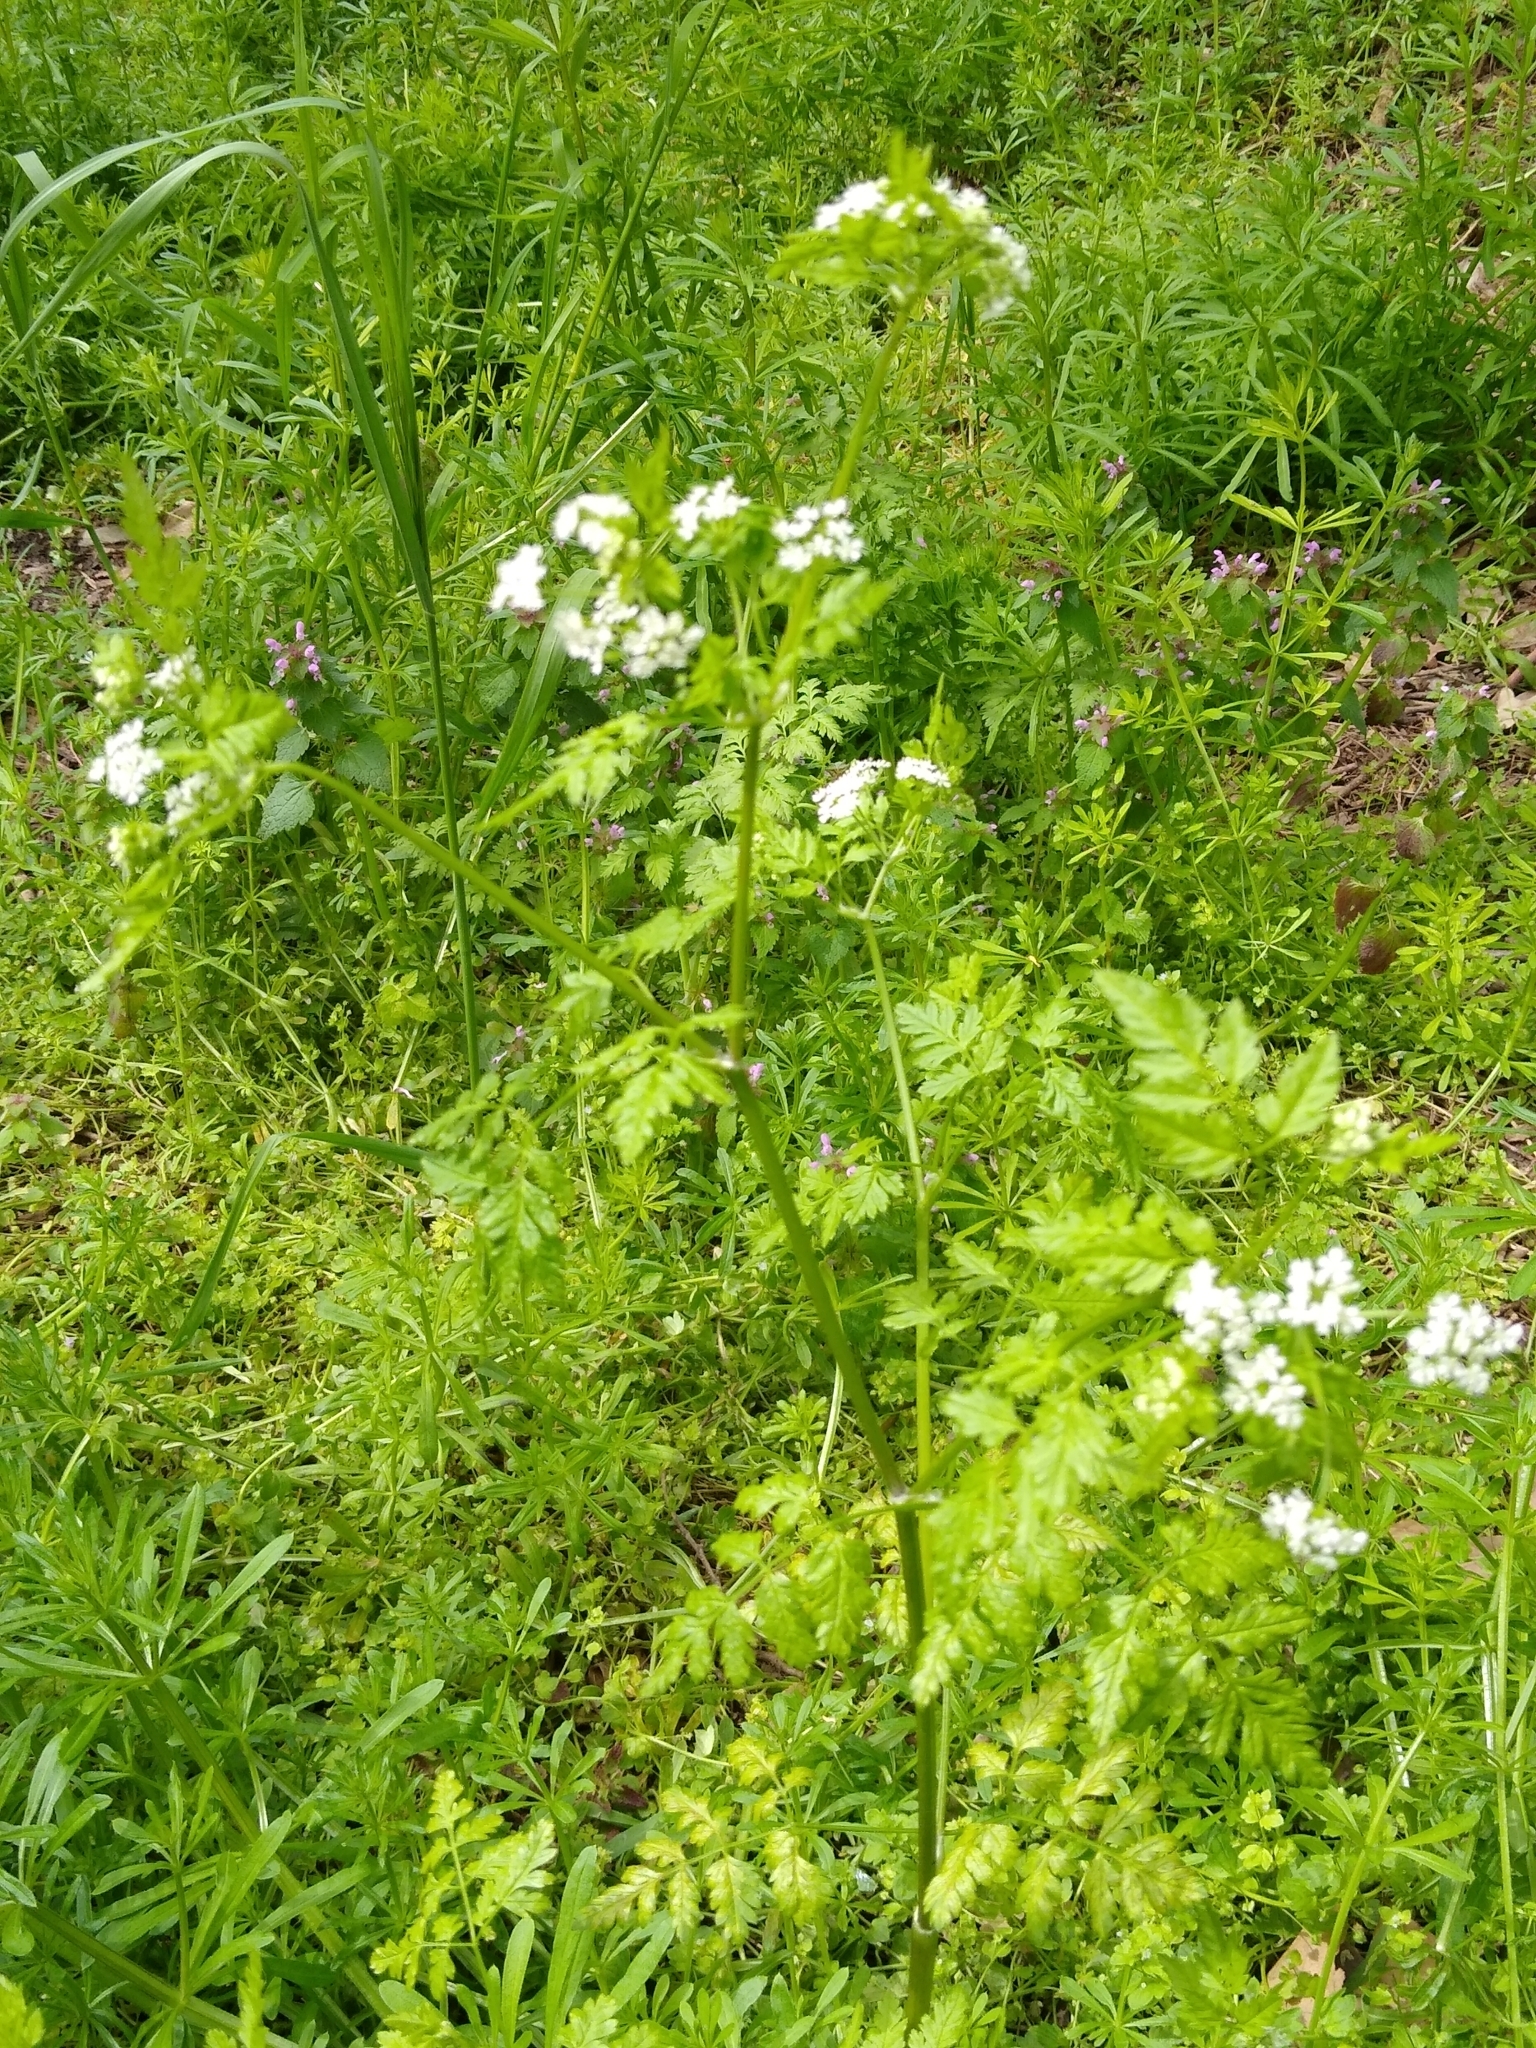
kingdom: Plantae
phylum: Tracheophyta
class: Magnoliopsida
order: Apiales
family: Apiaceae
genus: Anthriscus
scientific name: Anthriscus cerefolium
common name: Garden chervil
